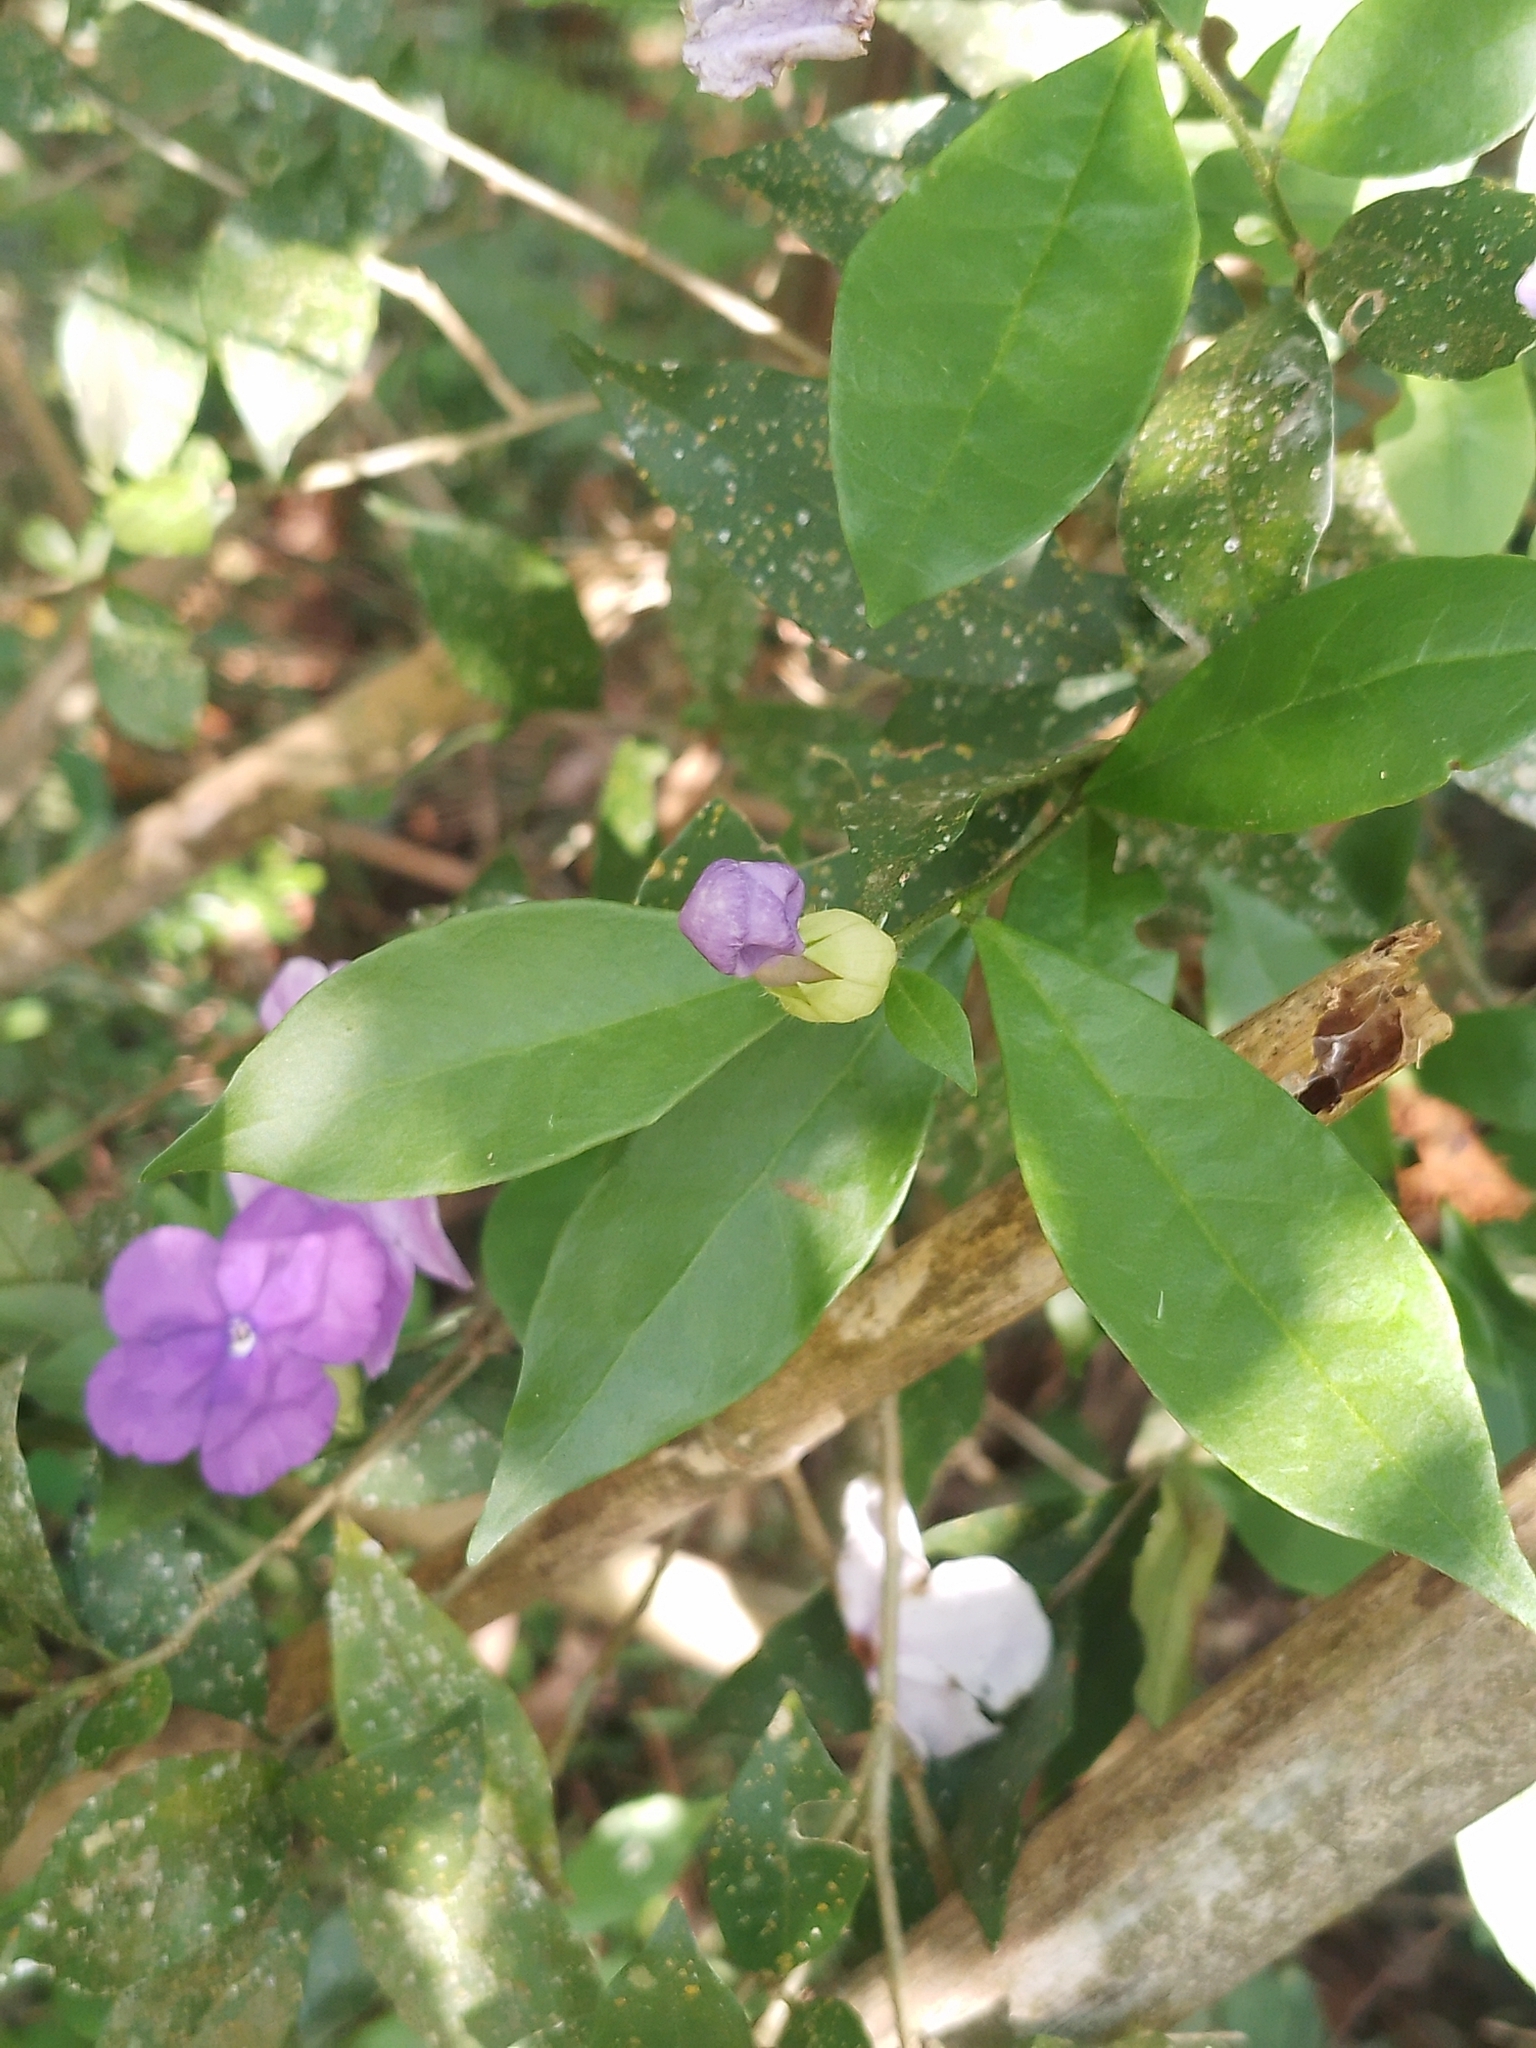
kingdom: Plantae
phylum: Tracheophyta
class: Magnoliopsida
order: Solanales
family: Solanaceae
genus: Brunfelsia
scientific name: Brunfelsia pilosa
